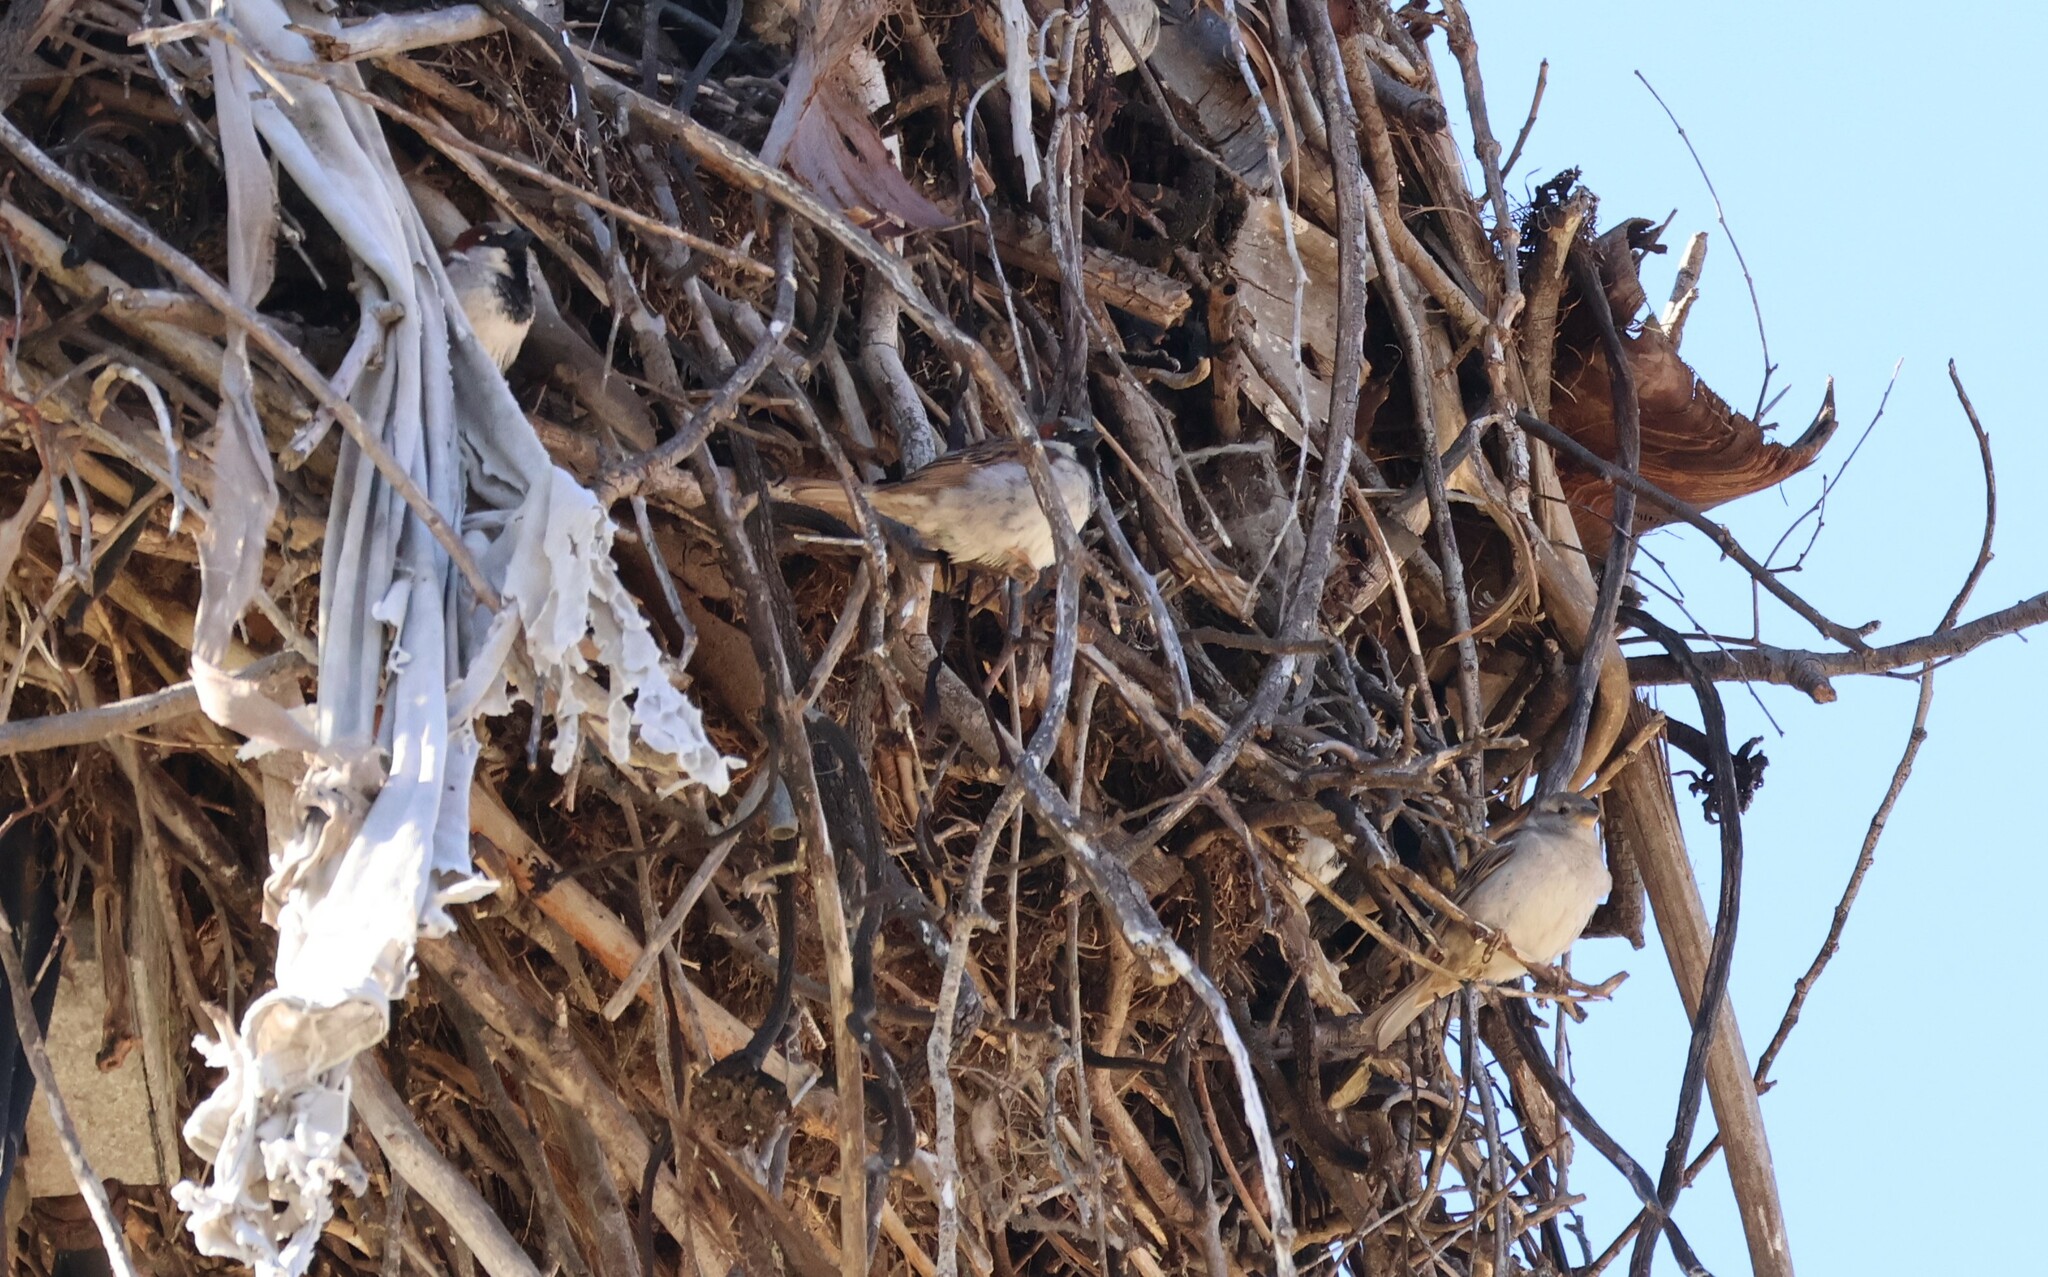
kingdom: Animalia
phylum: Chordata
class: Aves
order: Passeriformes
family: Passeridae
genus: Passer
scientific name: Passer domesticus
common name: House sparrow
